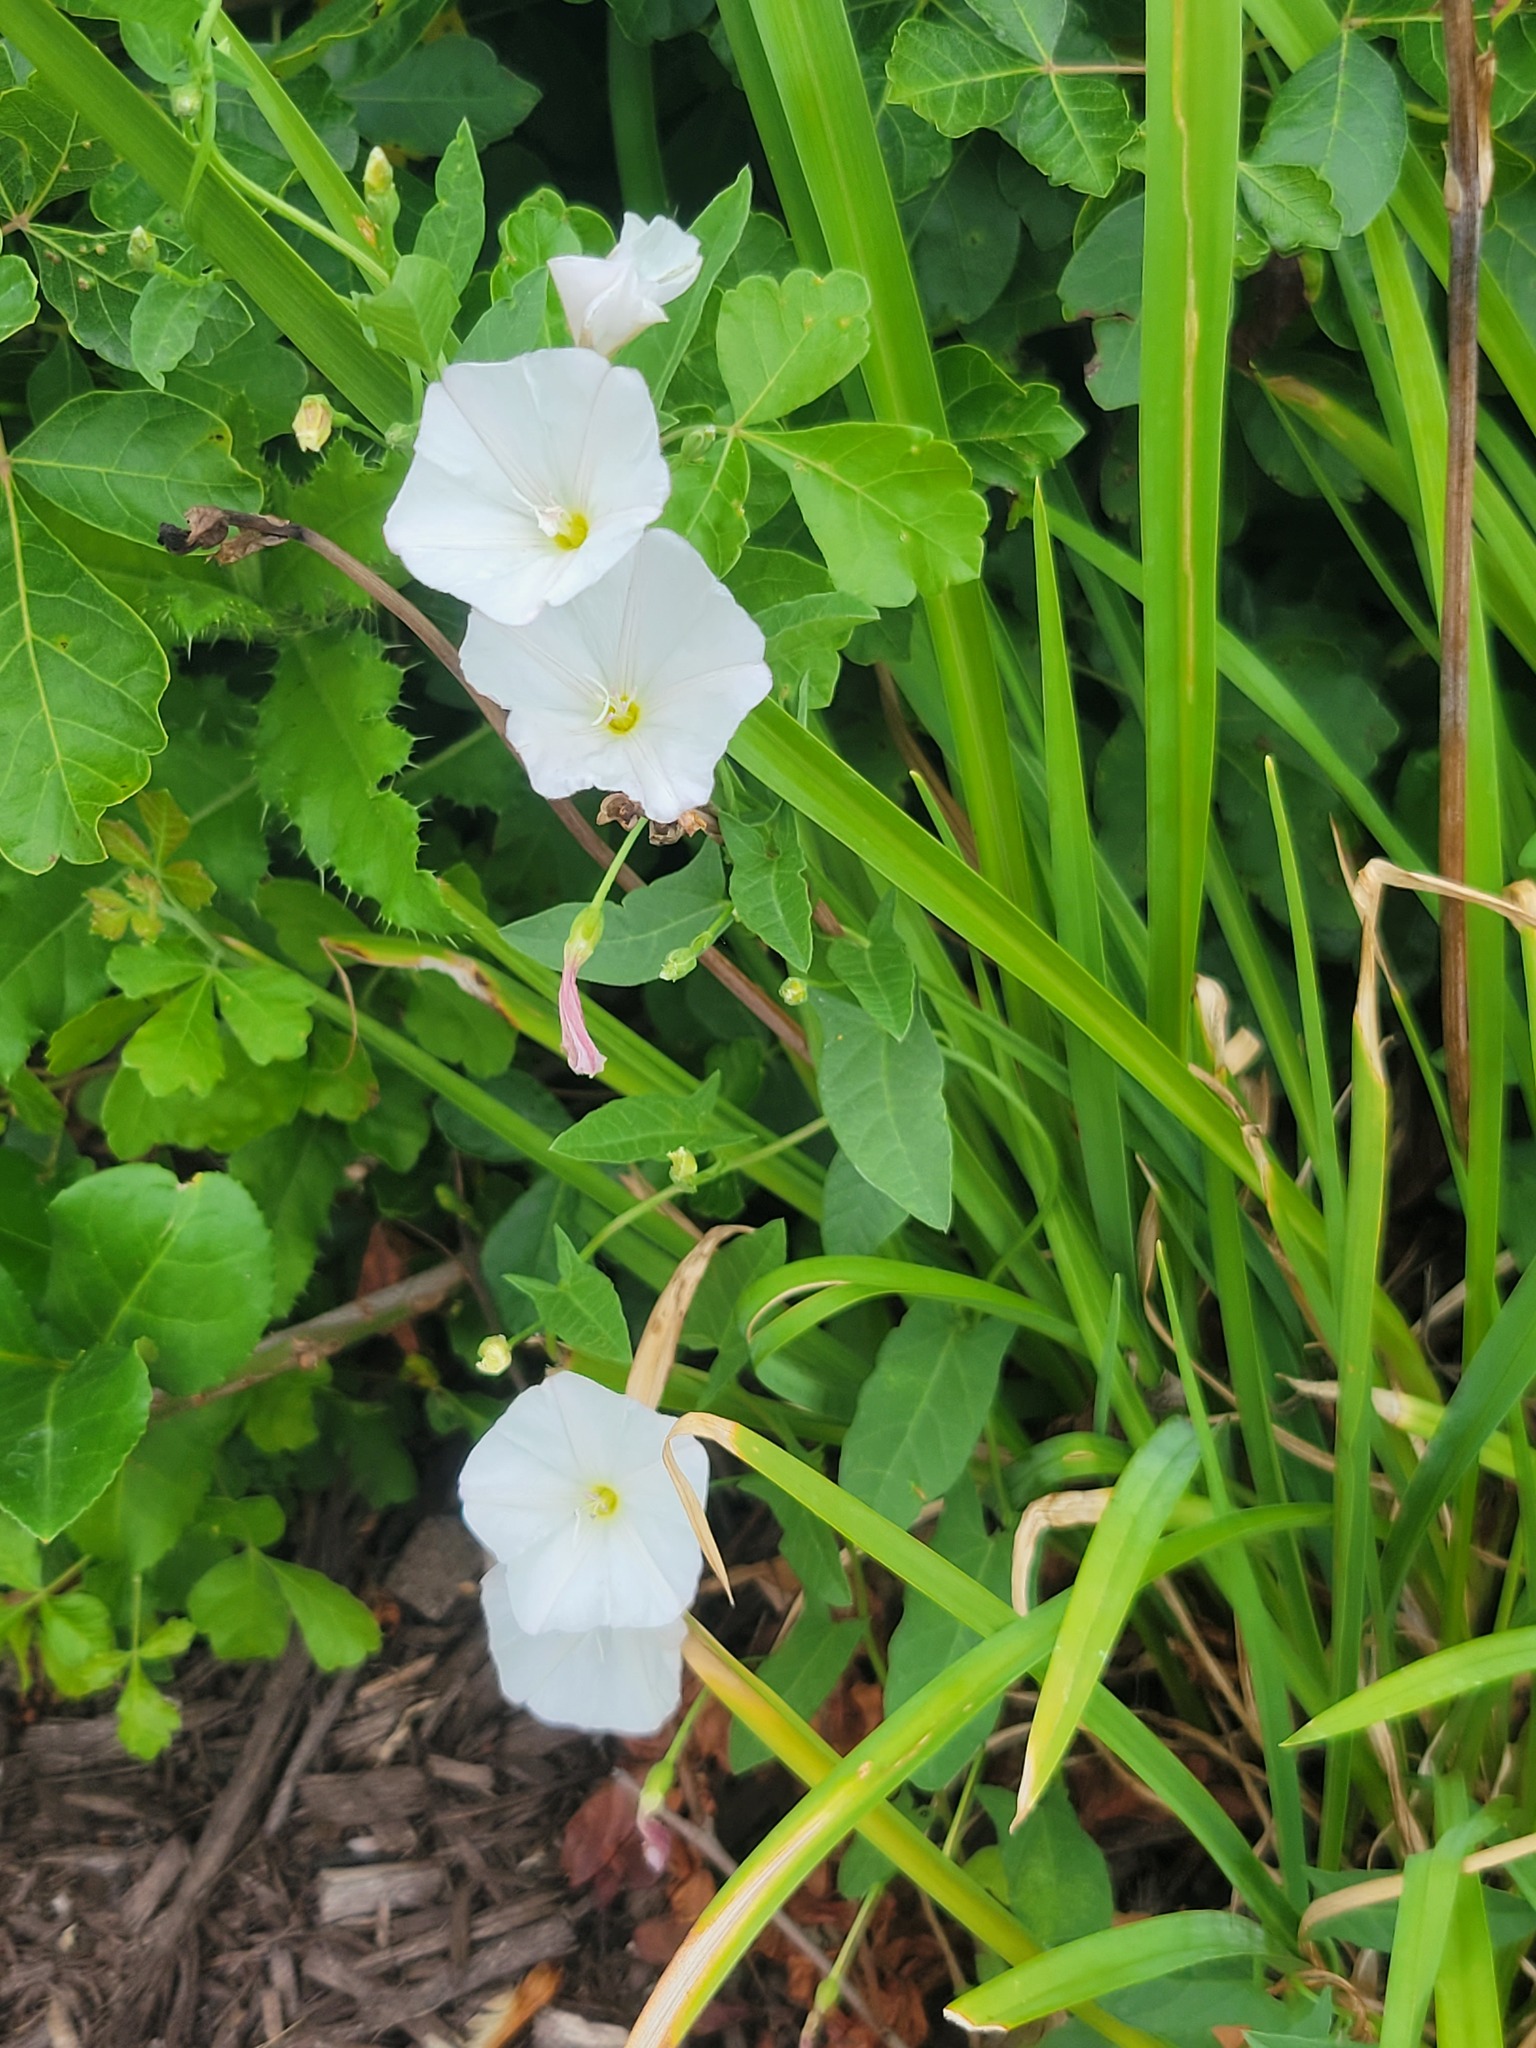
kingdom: Plantae
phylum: Tracheophyta
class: Magnoliopsida
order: Solanales
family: Convolvulaceae
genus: Convolvulus
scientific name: Convolvulus arvensis
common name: Field bindweed
